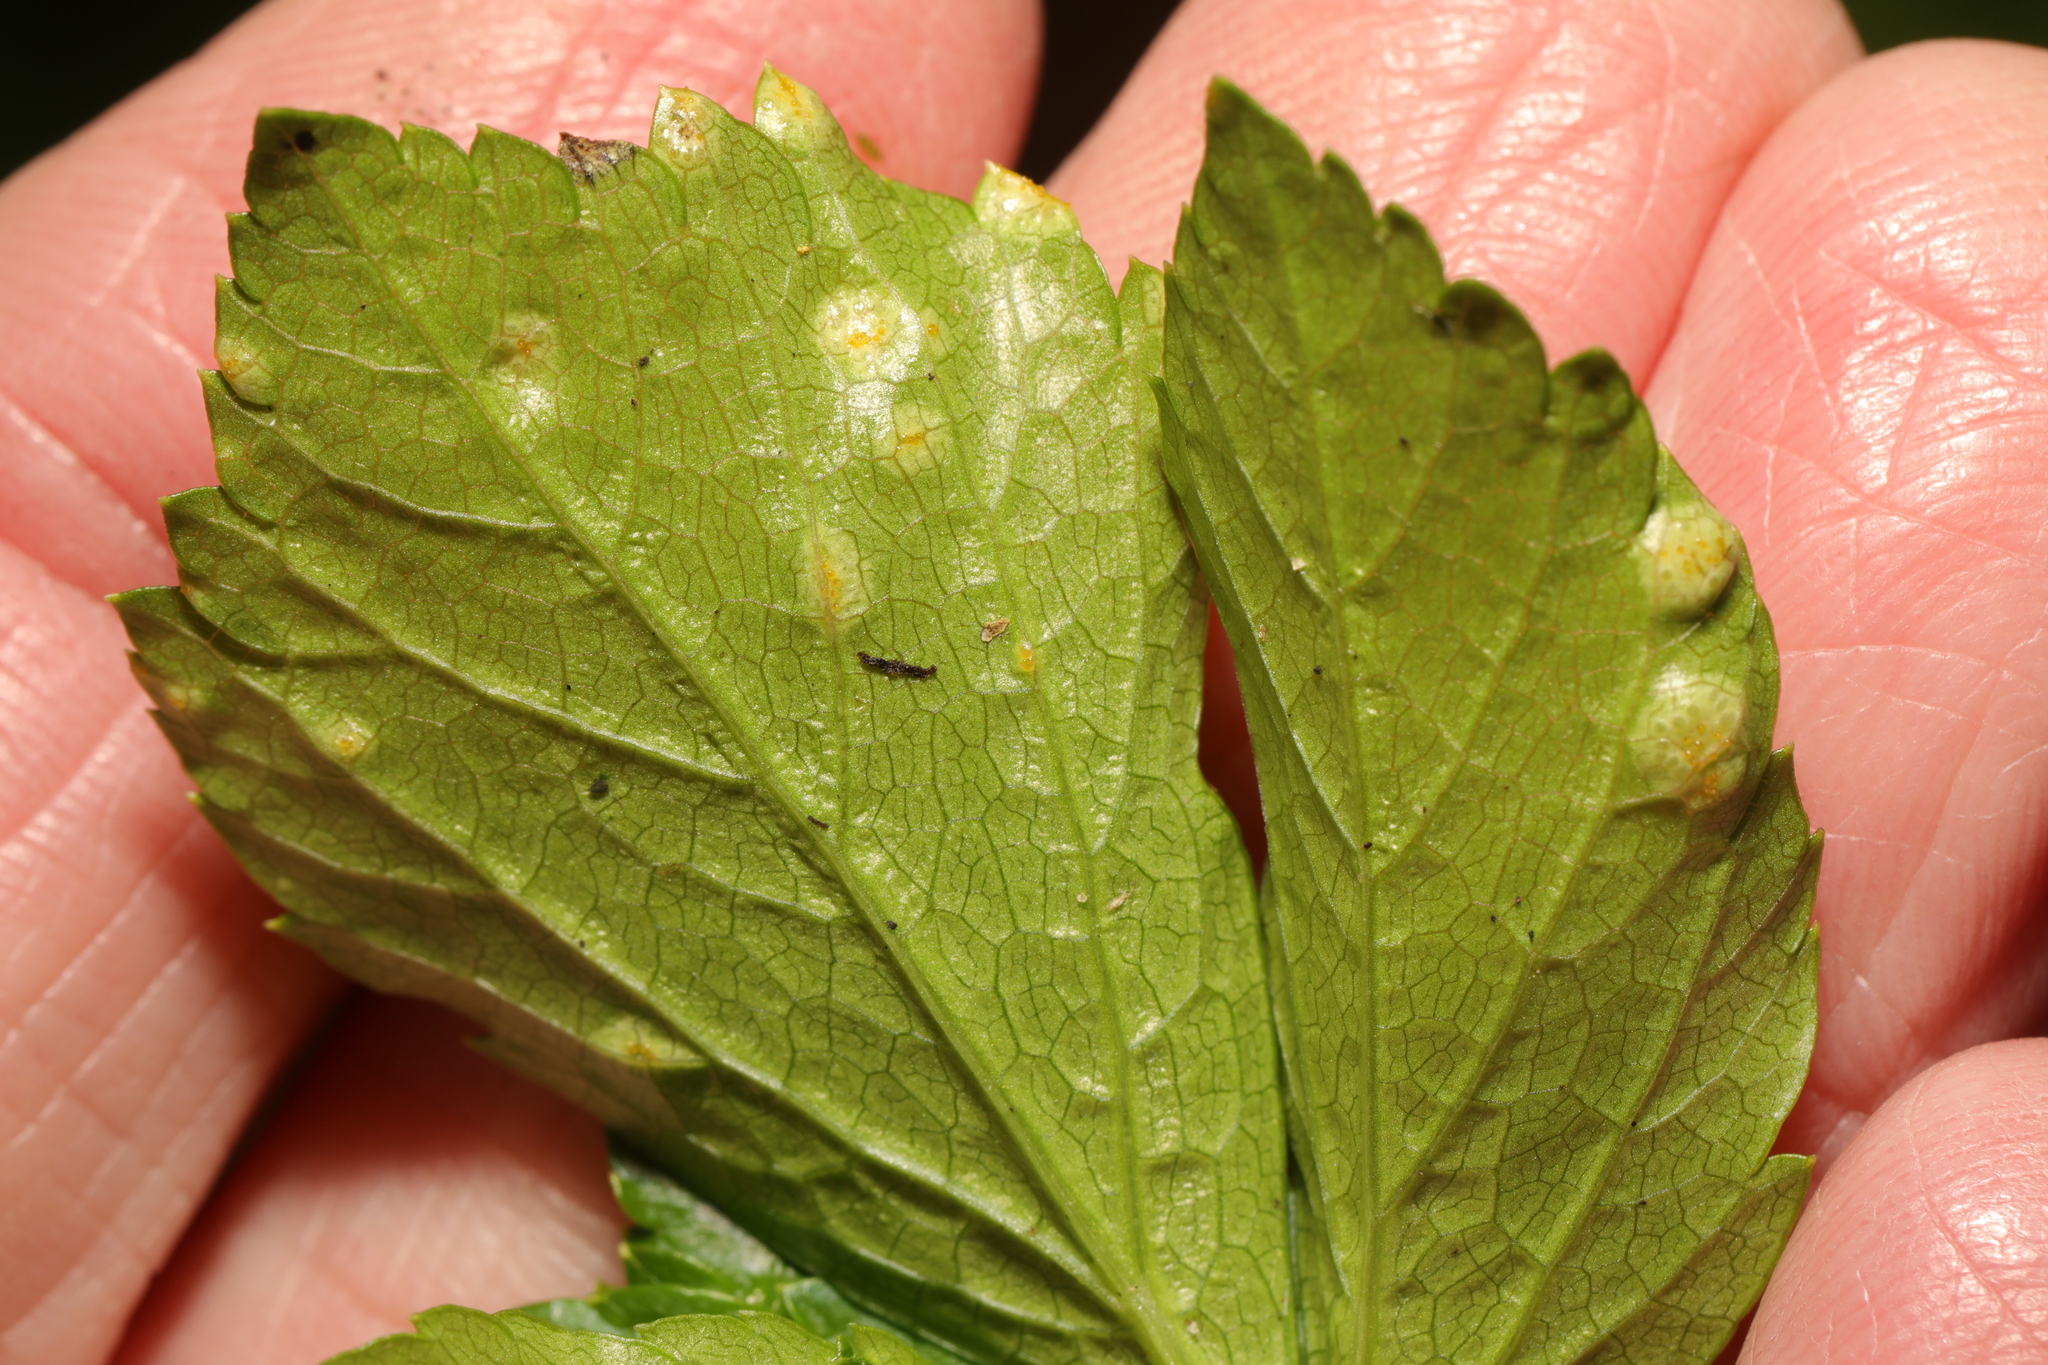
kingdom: Fungi
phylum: Basidiomycota
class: Pucciniomycetes
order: Pucciniales
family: Pucciniaceae
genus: Puccinia
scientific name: Puccinia smyrnii
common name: Alexanders rust
